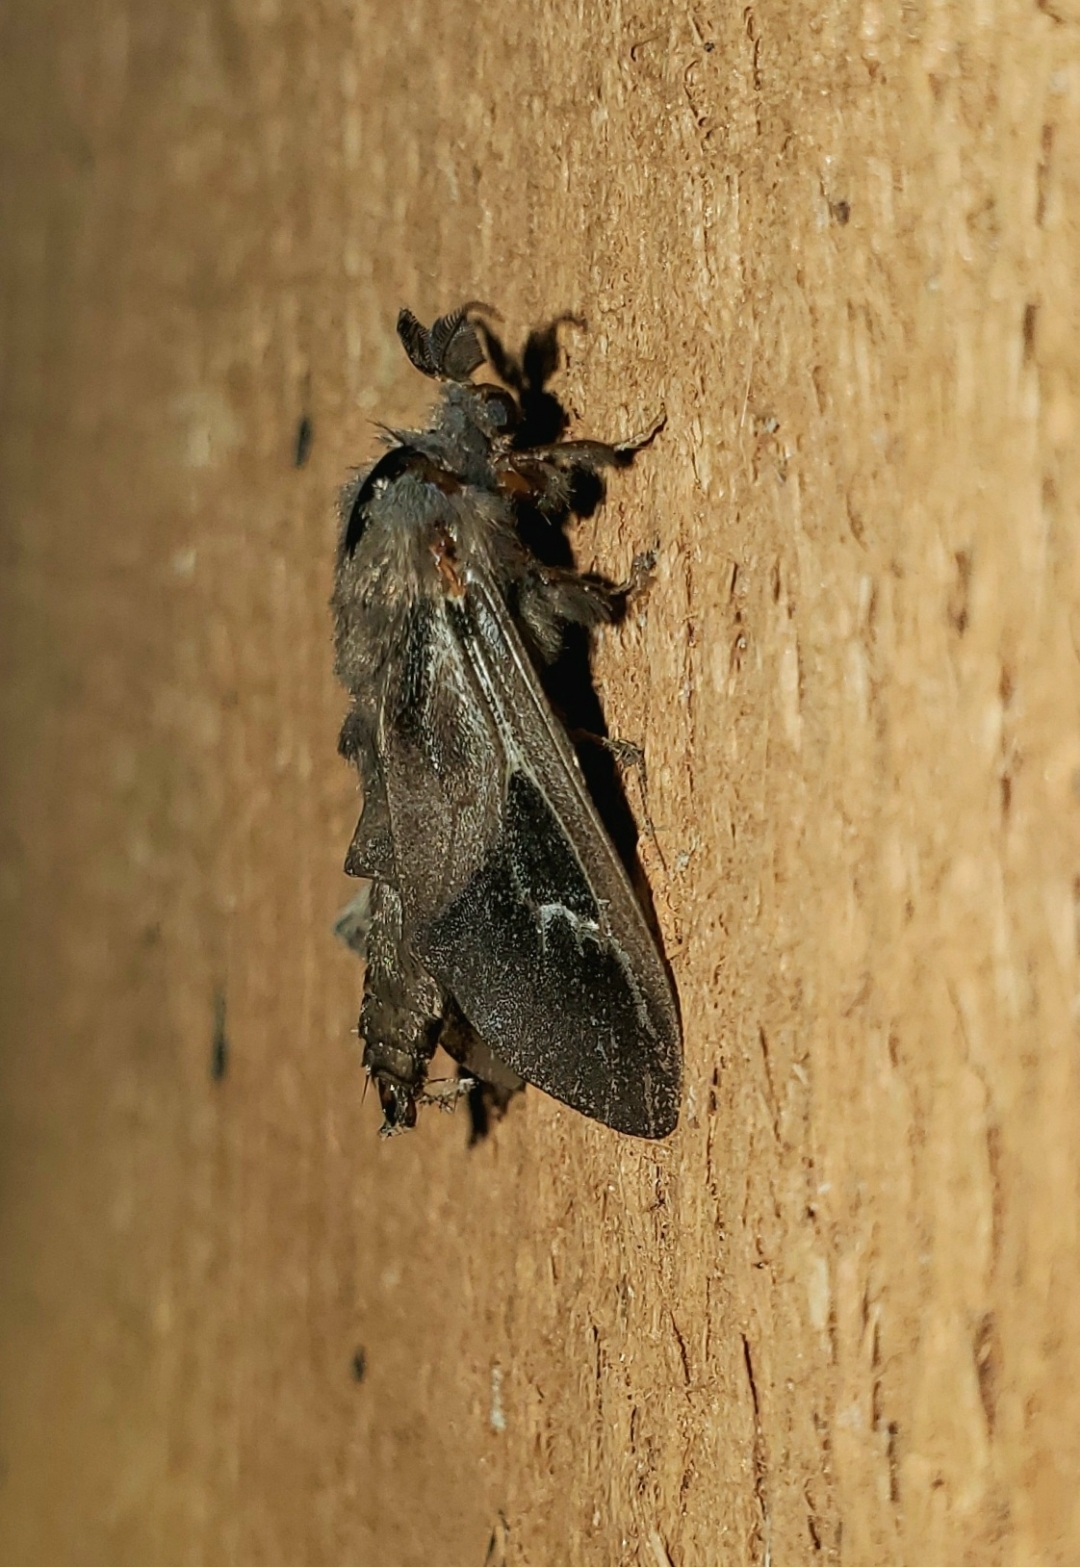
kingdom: Animalia
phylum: Arthropoda
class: Insecta
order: Lepidoptera
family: Psychidae
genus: Oiketicus
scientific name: Oiketicus
